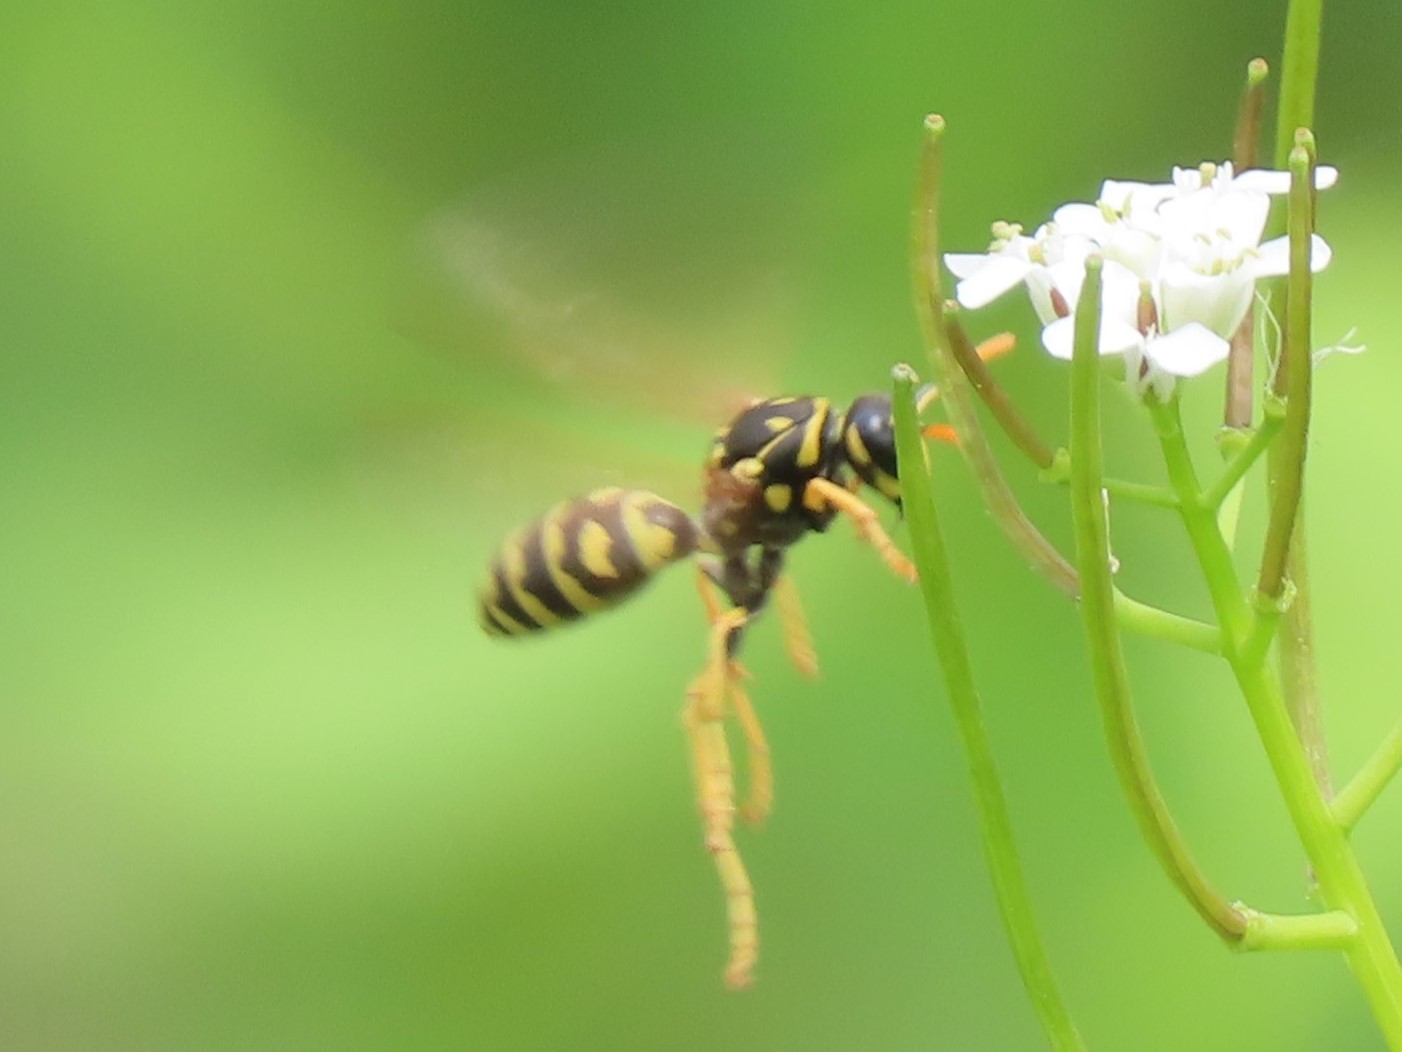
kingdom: Animalia
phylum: Arthropoda
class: Insecta
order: Hymenoptera
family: Eumenidae
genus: Polistes
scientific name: Polistes dominula
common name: Paper wasp
